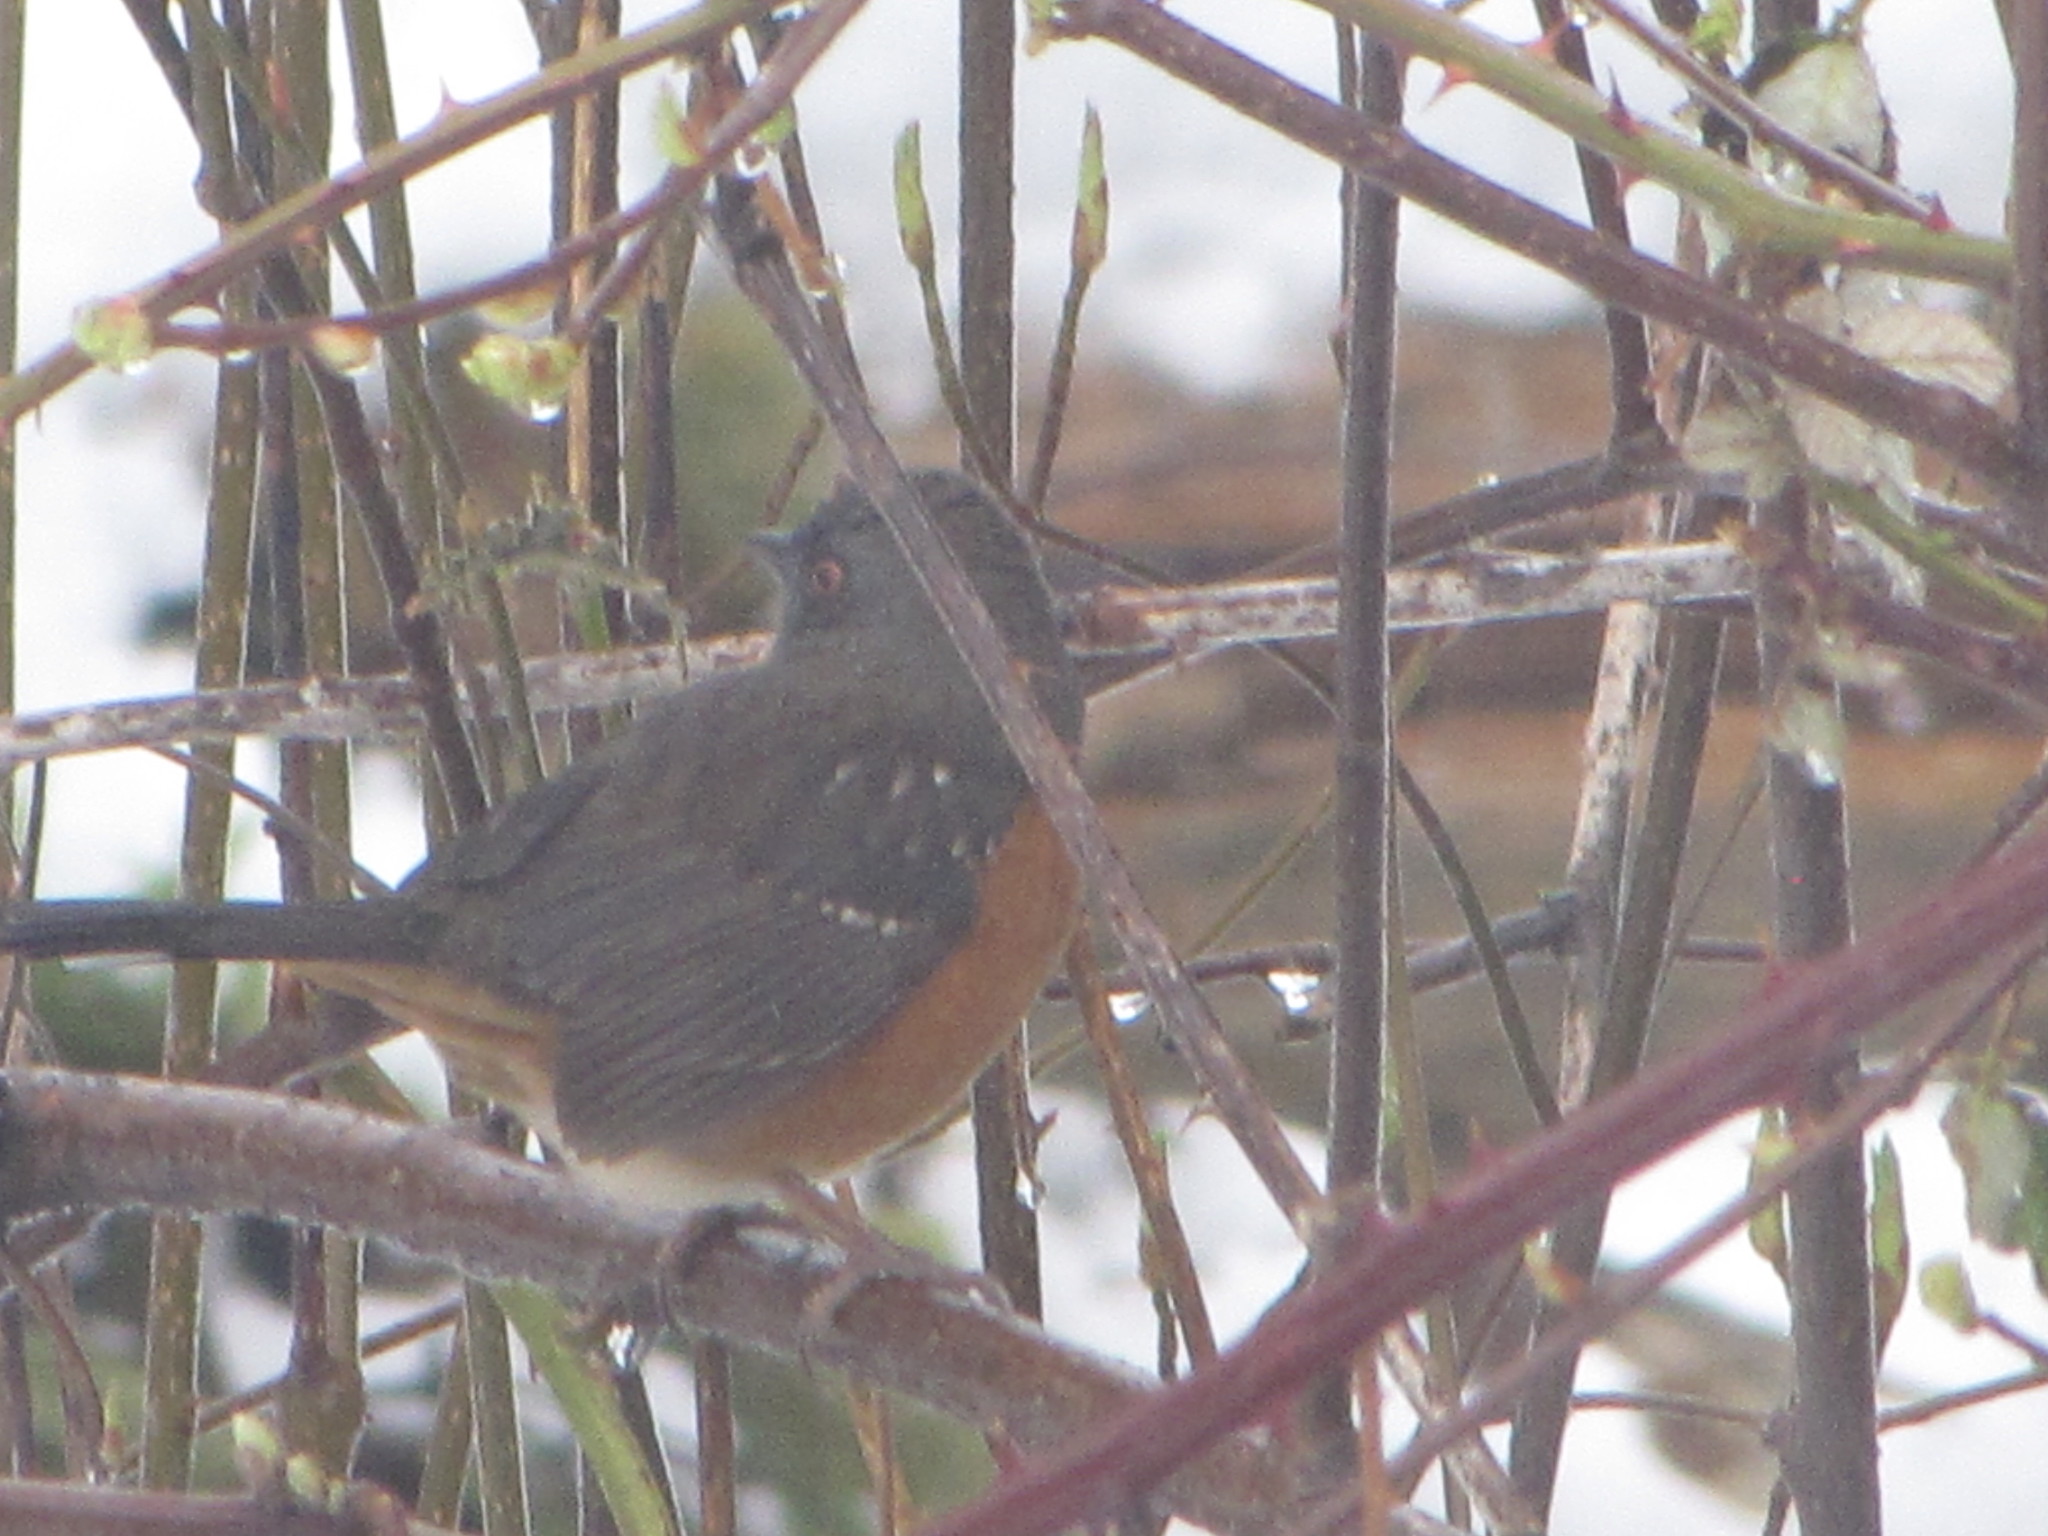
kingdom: Animalia
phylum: Chordata
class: Aves
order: Passeriformes
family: Passerellidae
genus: Pipilo
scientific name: Pipilo maculatus
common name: Spotted towhee
